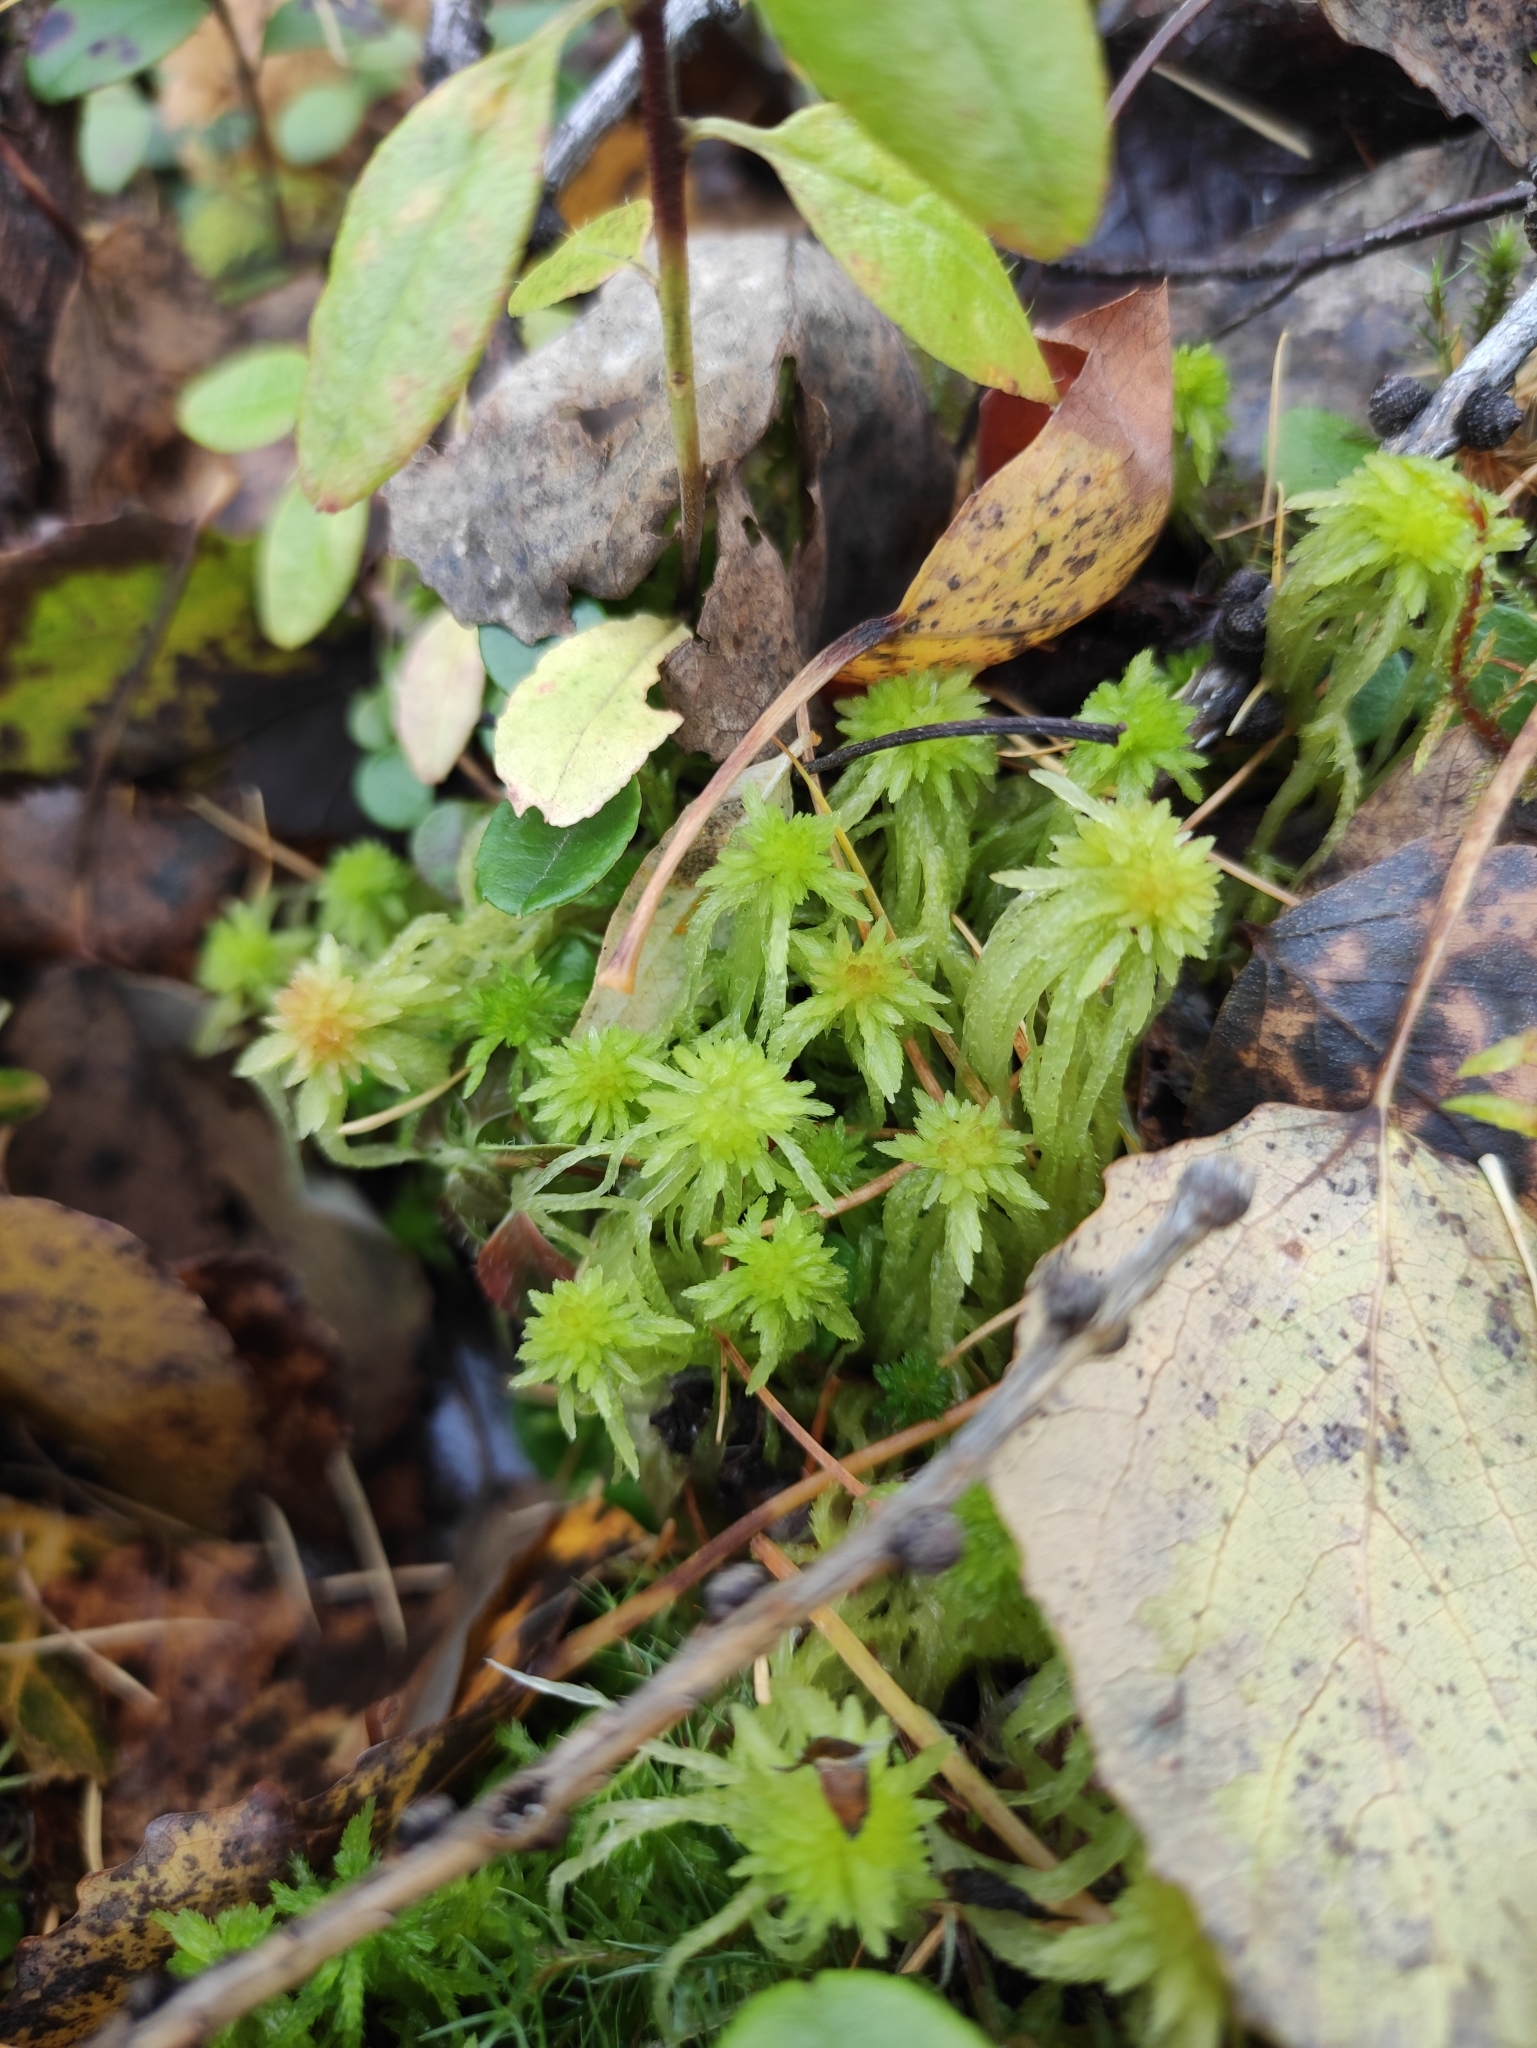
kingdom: Plantae
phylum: Bryophyta
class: Sphagnopsida
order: Sphagnales
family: Sphagnaceae
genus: Sphagnum
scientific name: Sphagnum russowii
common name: Russow's peat moss
